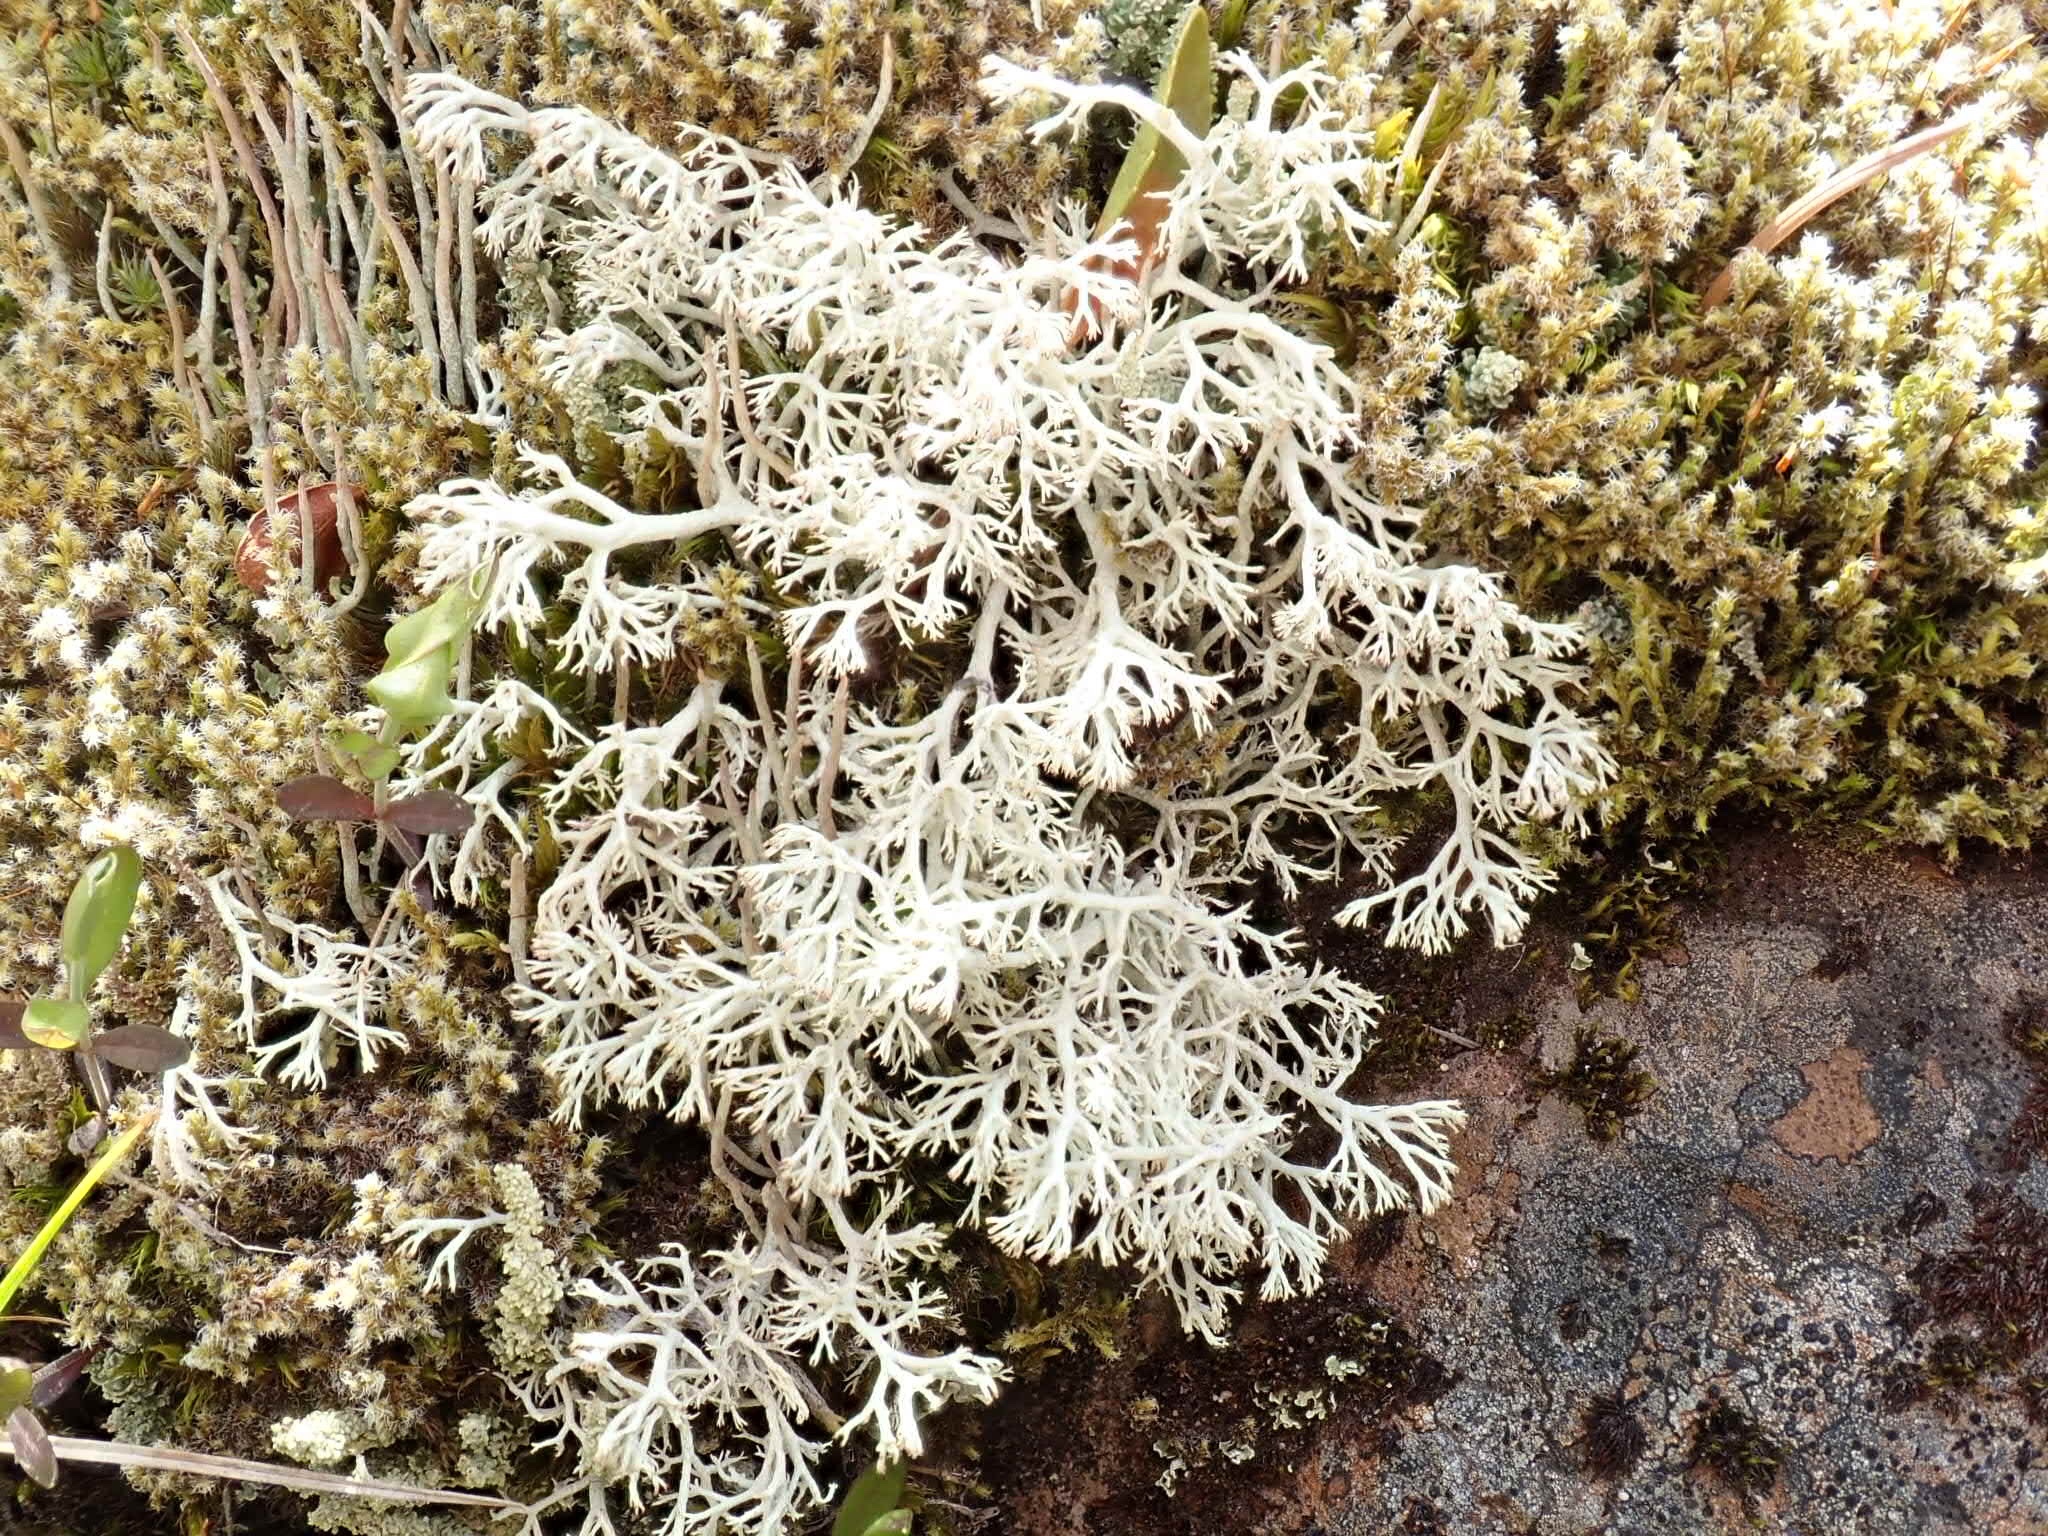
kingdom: Fungi
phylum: Ascomycota
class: Lecanoromycetes
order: Lecanorales
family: Cladoniaceae
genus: Cladonia
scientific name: Cladonia rangiferina
